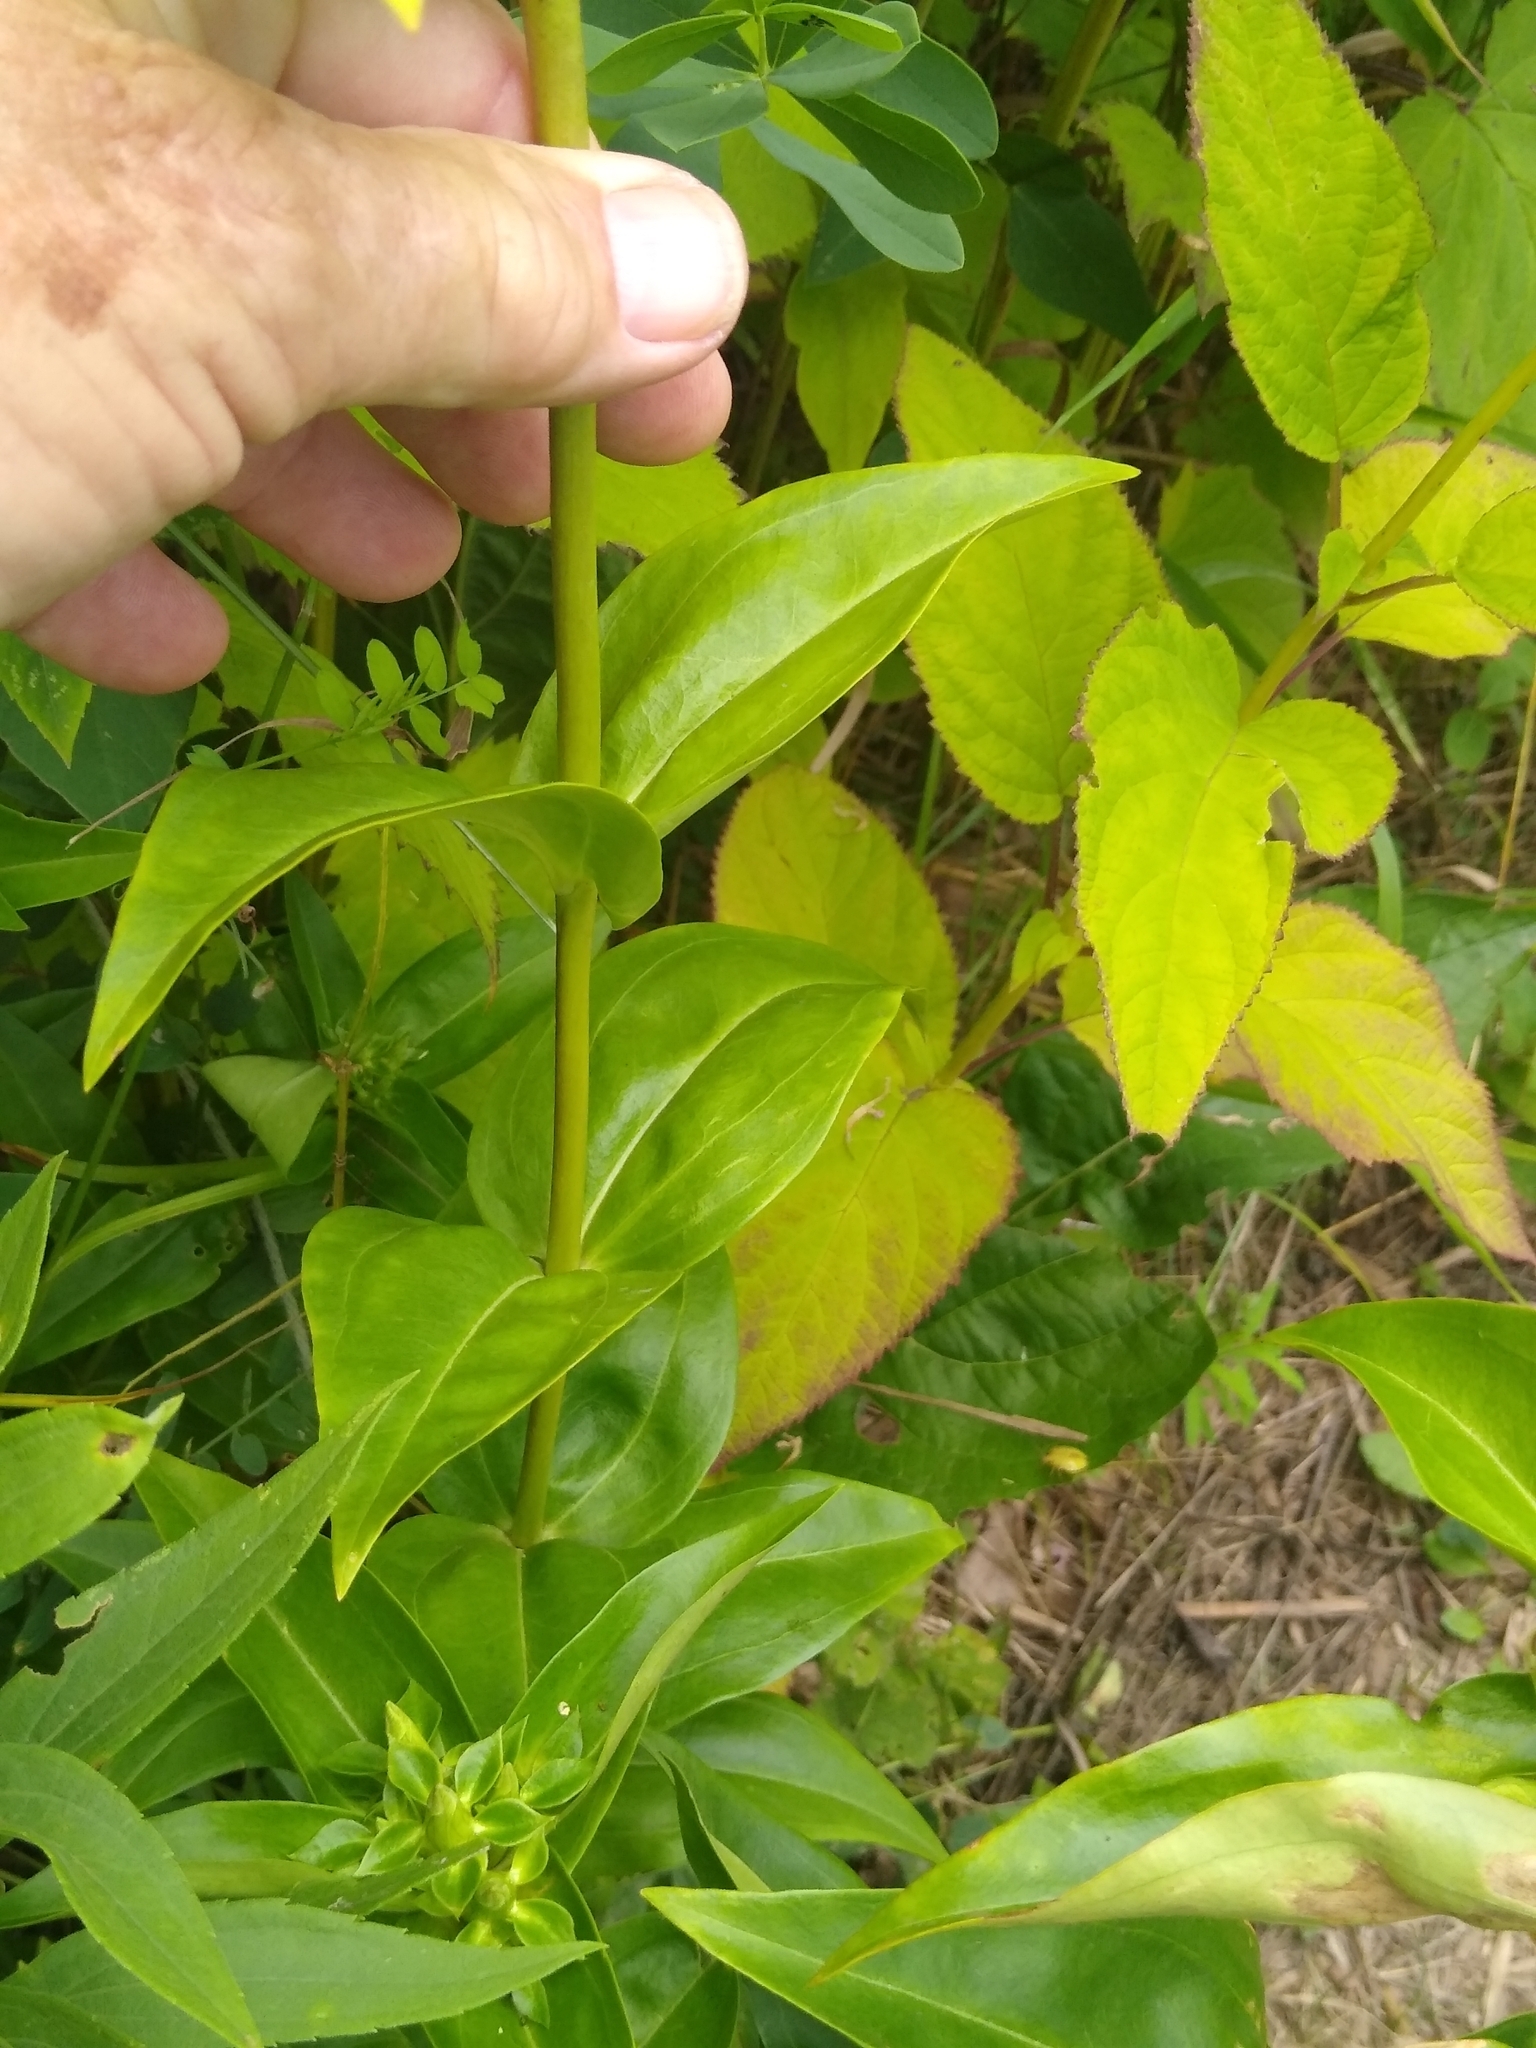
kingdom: Plantae
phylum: Tracheophyta
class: Magnoliopsida
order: Lamiales
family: Plantaginaceae
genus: Chelone
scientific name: Chelone glabra
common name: Snakehead
